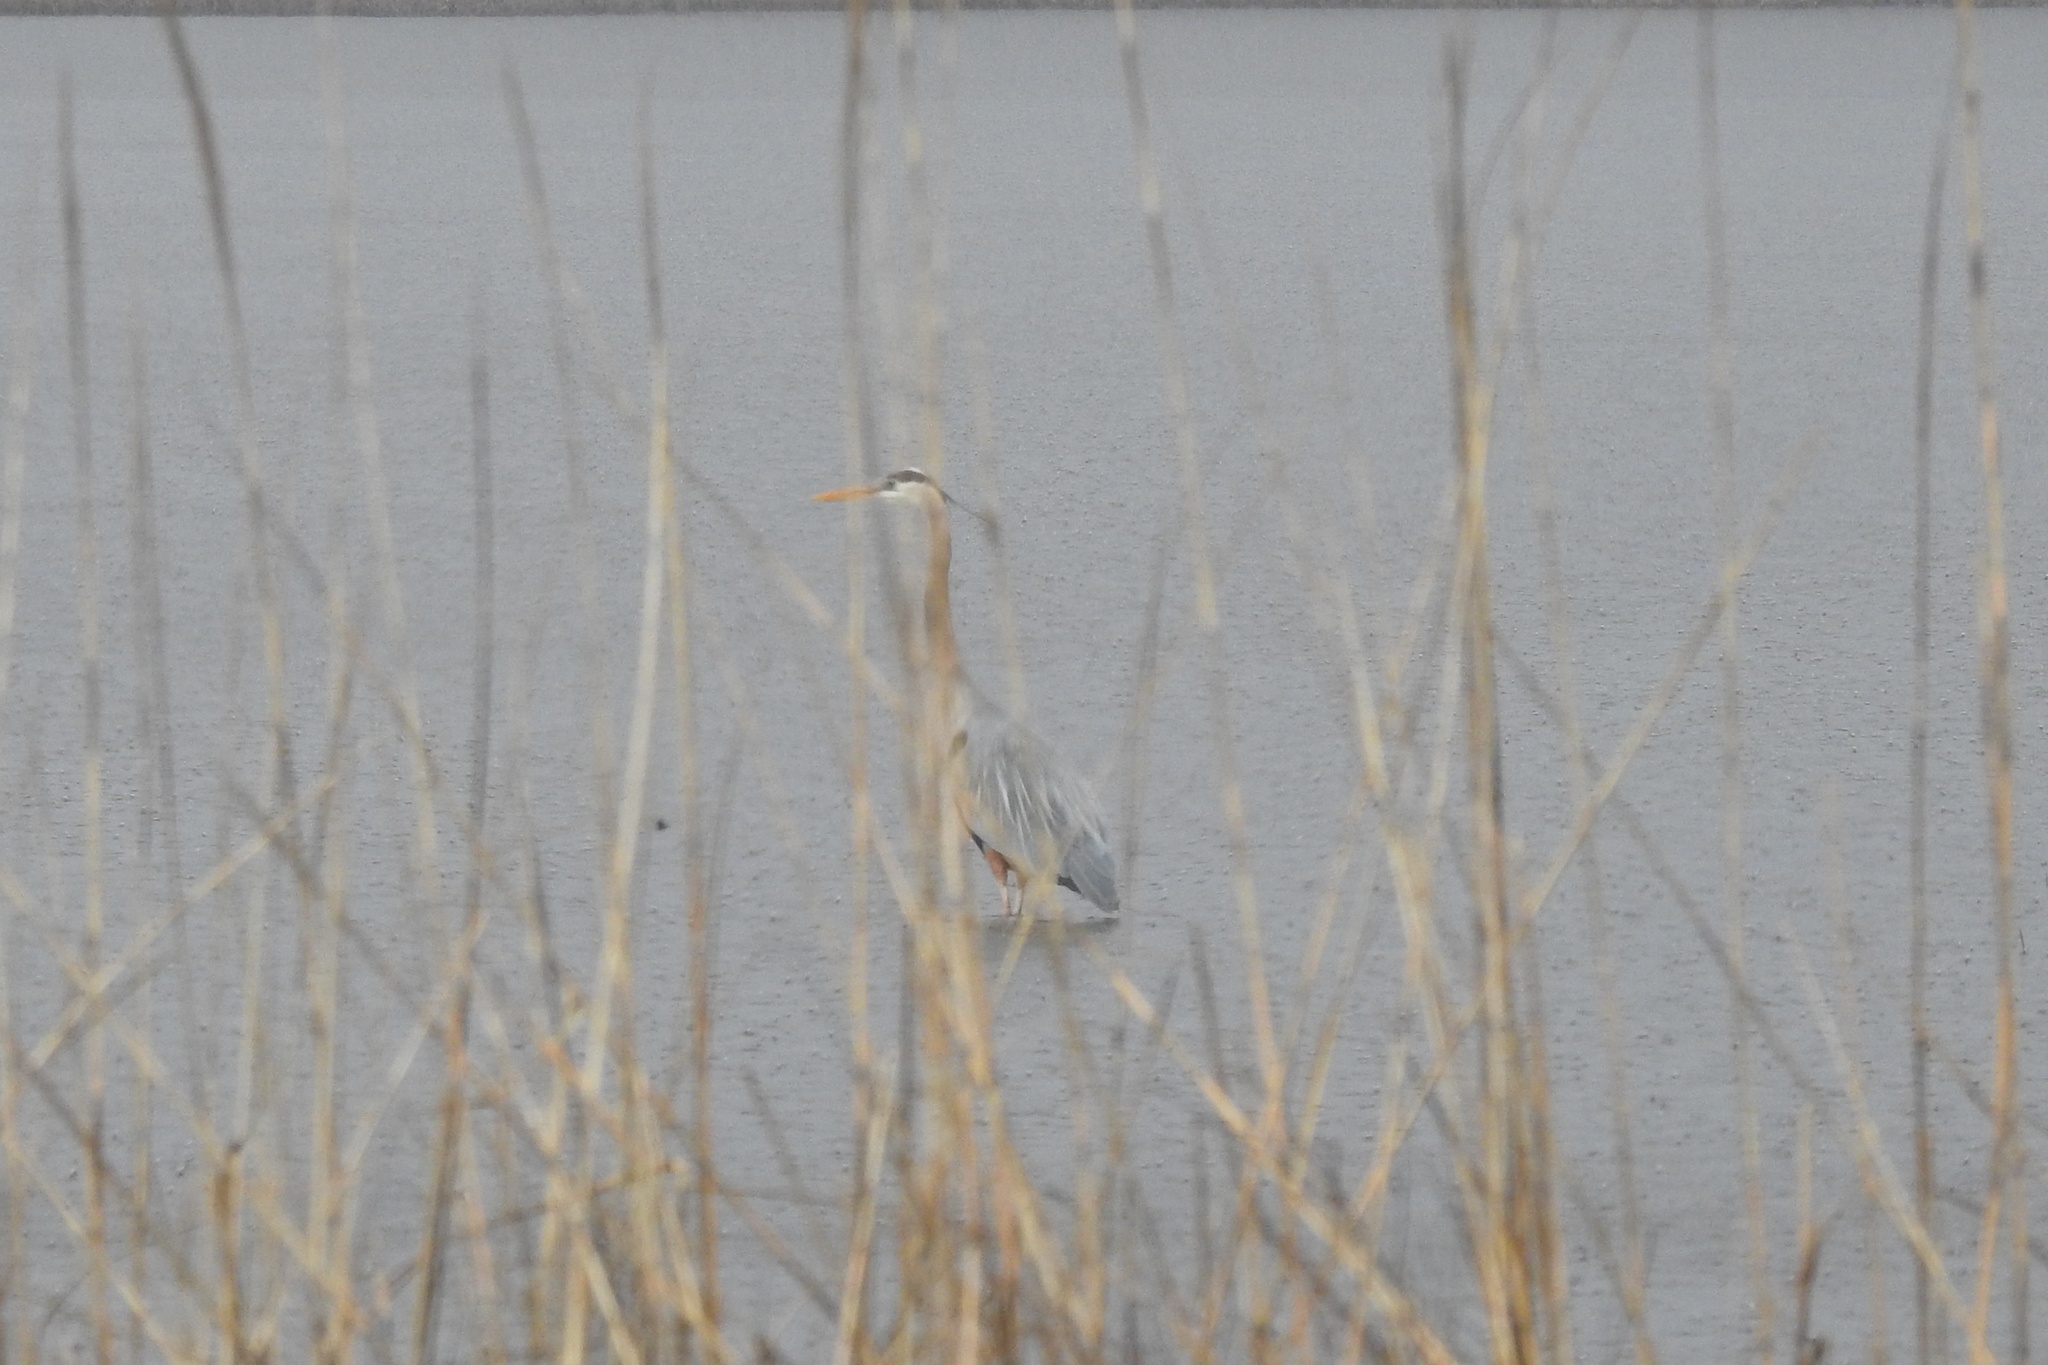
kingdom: Animalia
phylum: Chordata
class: Aves
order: Pelecaniformes
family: Ardeidae
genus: Ardea
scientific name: Ardea herodias
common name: Great blue heron
